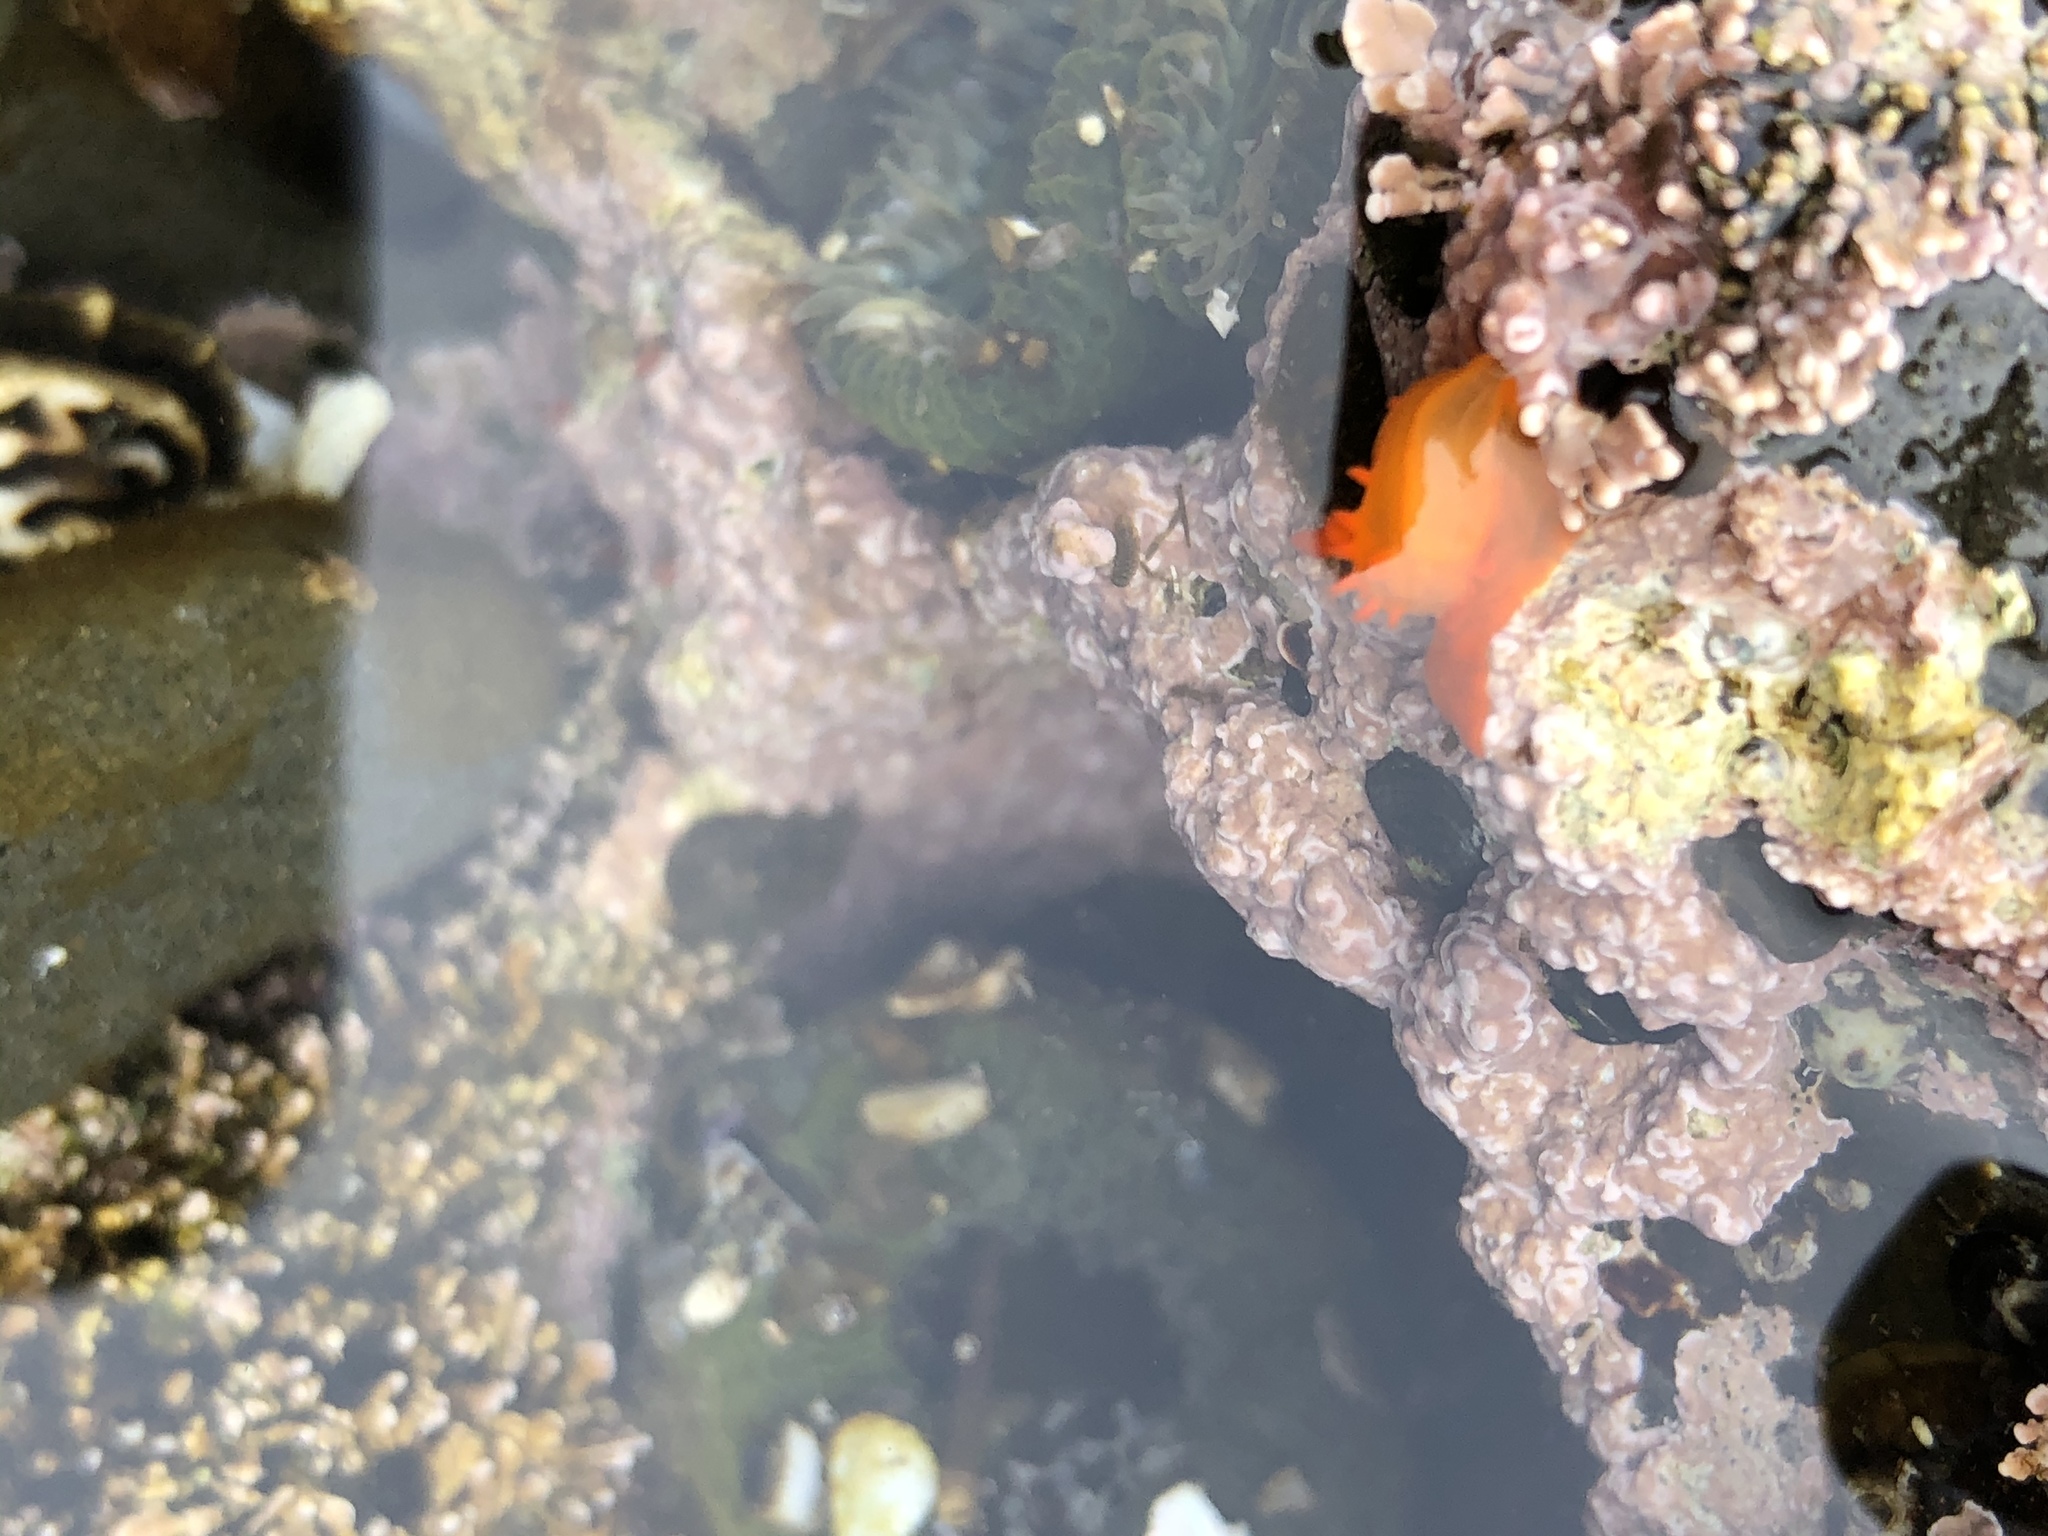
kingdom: Animalia
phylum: Mollusca
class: Gastropoda
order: Nudibranchia
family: Polyceridae
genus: Triopha
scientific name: Triopha maculata
